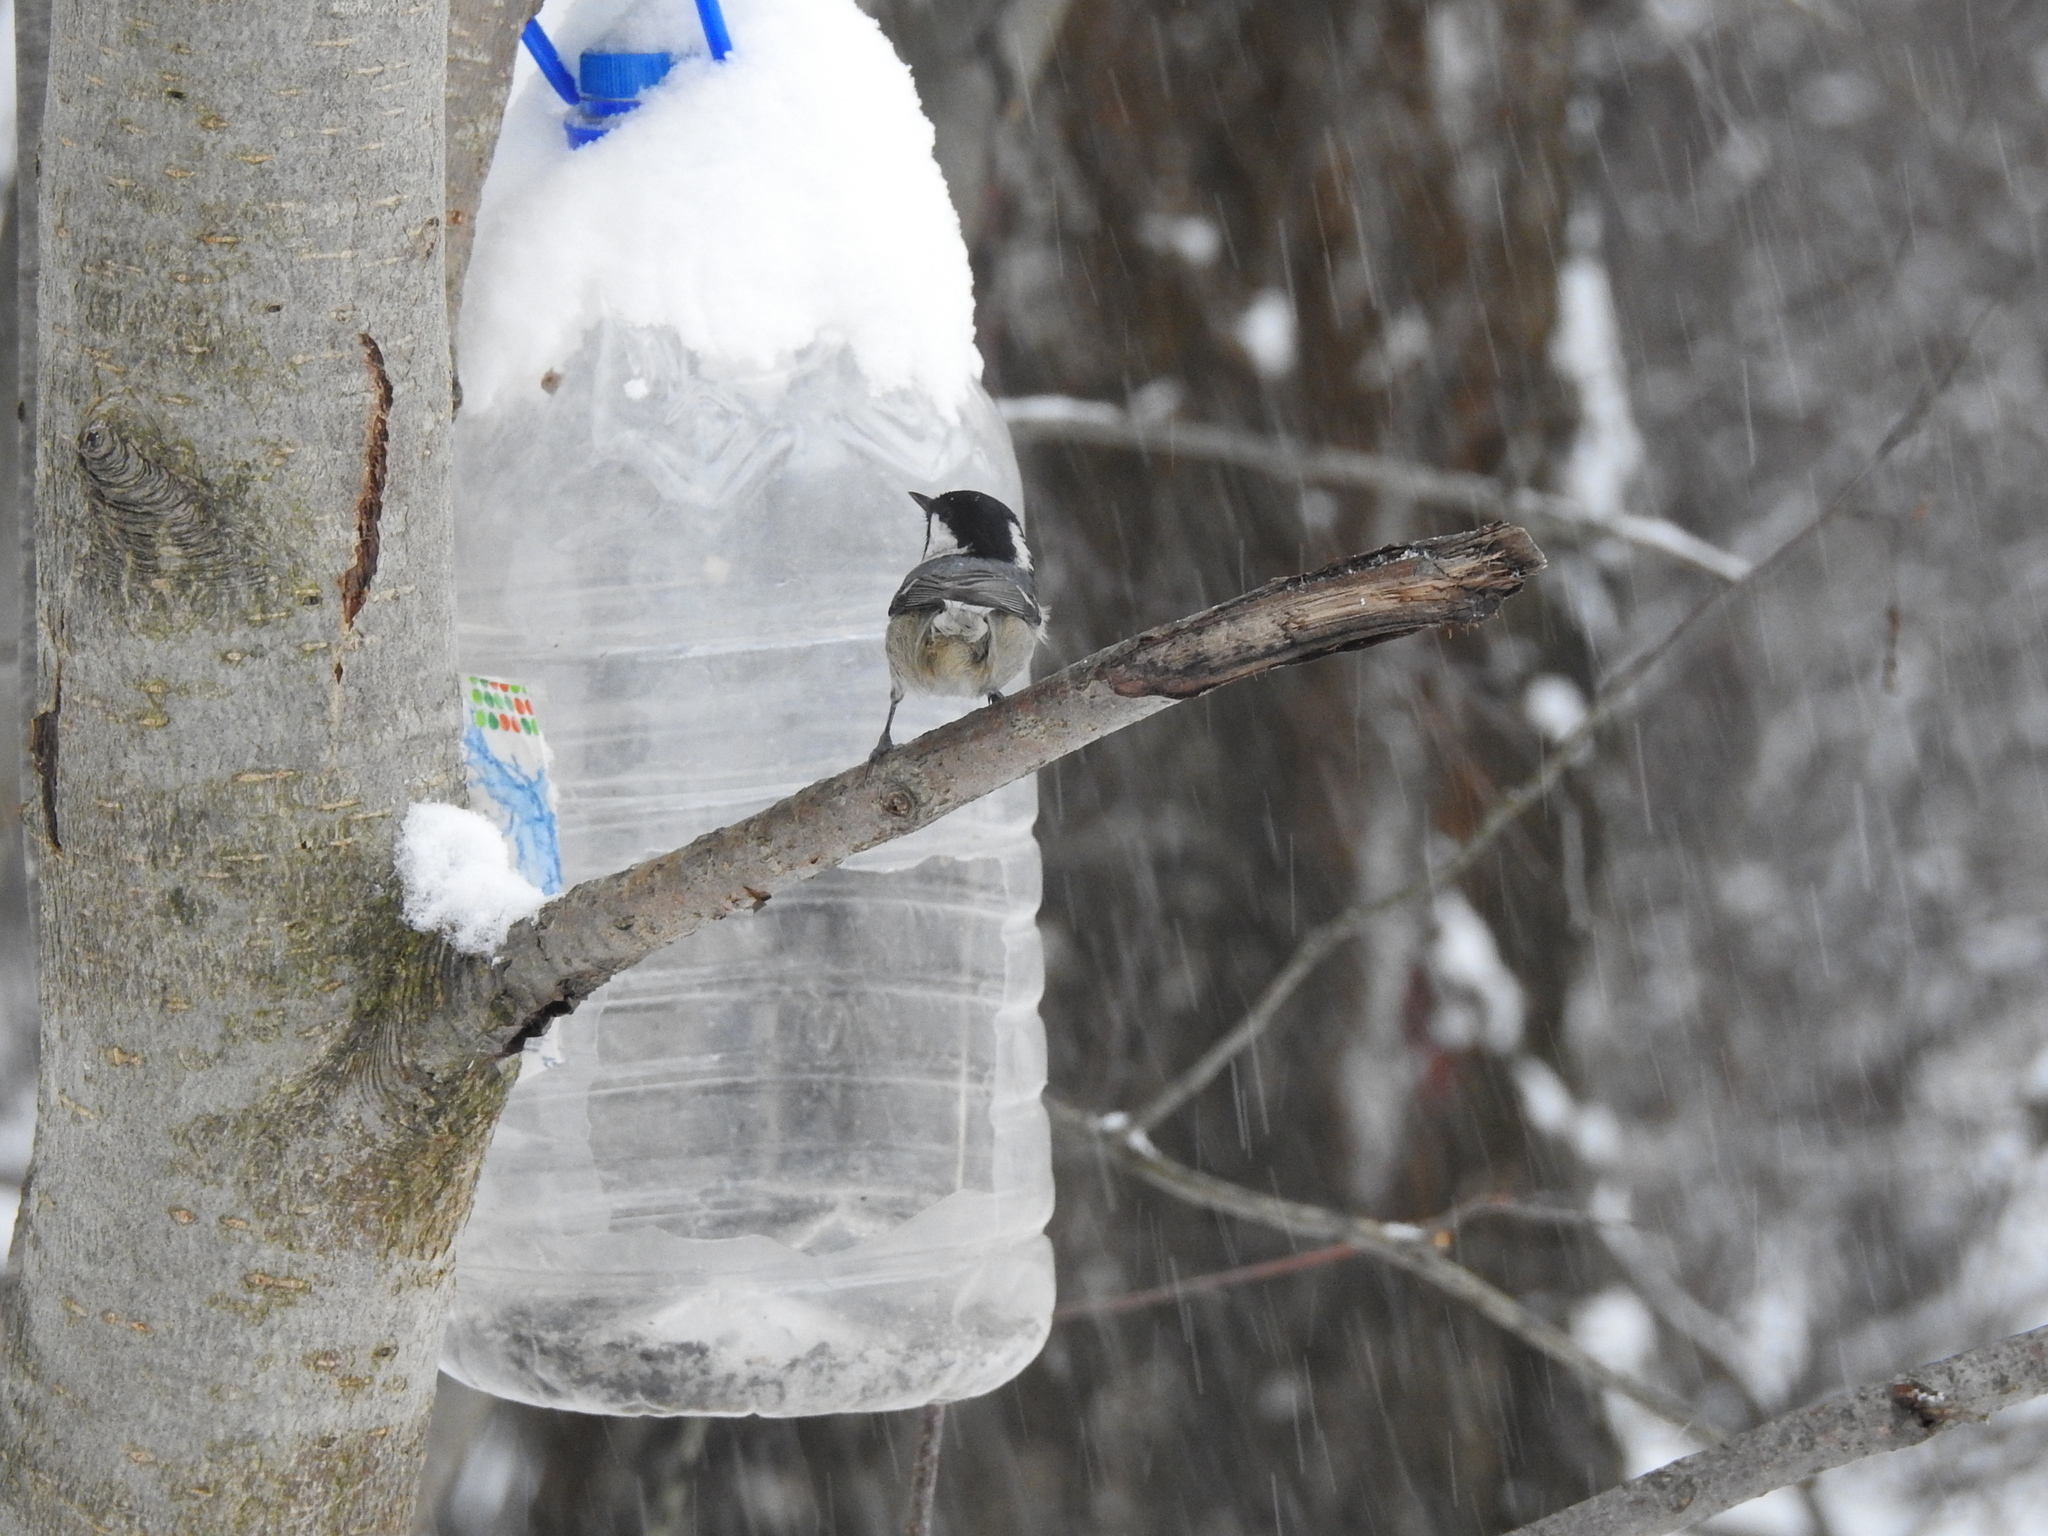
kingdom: Animalia
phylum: Chordata
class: Aves
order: Passeriformes
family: Paridae
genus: Periparus
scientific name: Periparus ater
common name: Coal tit
